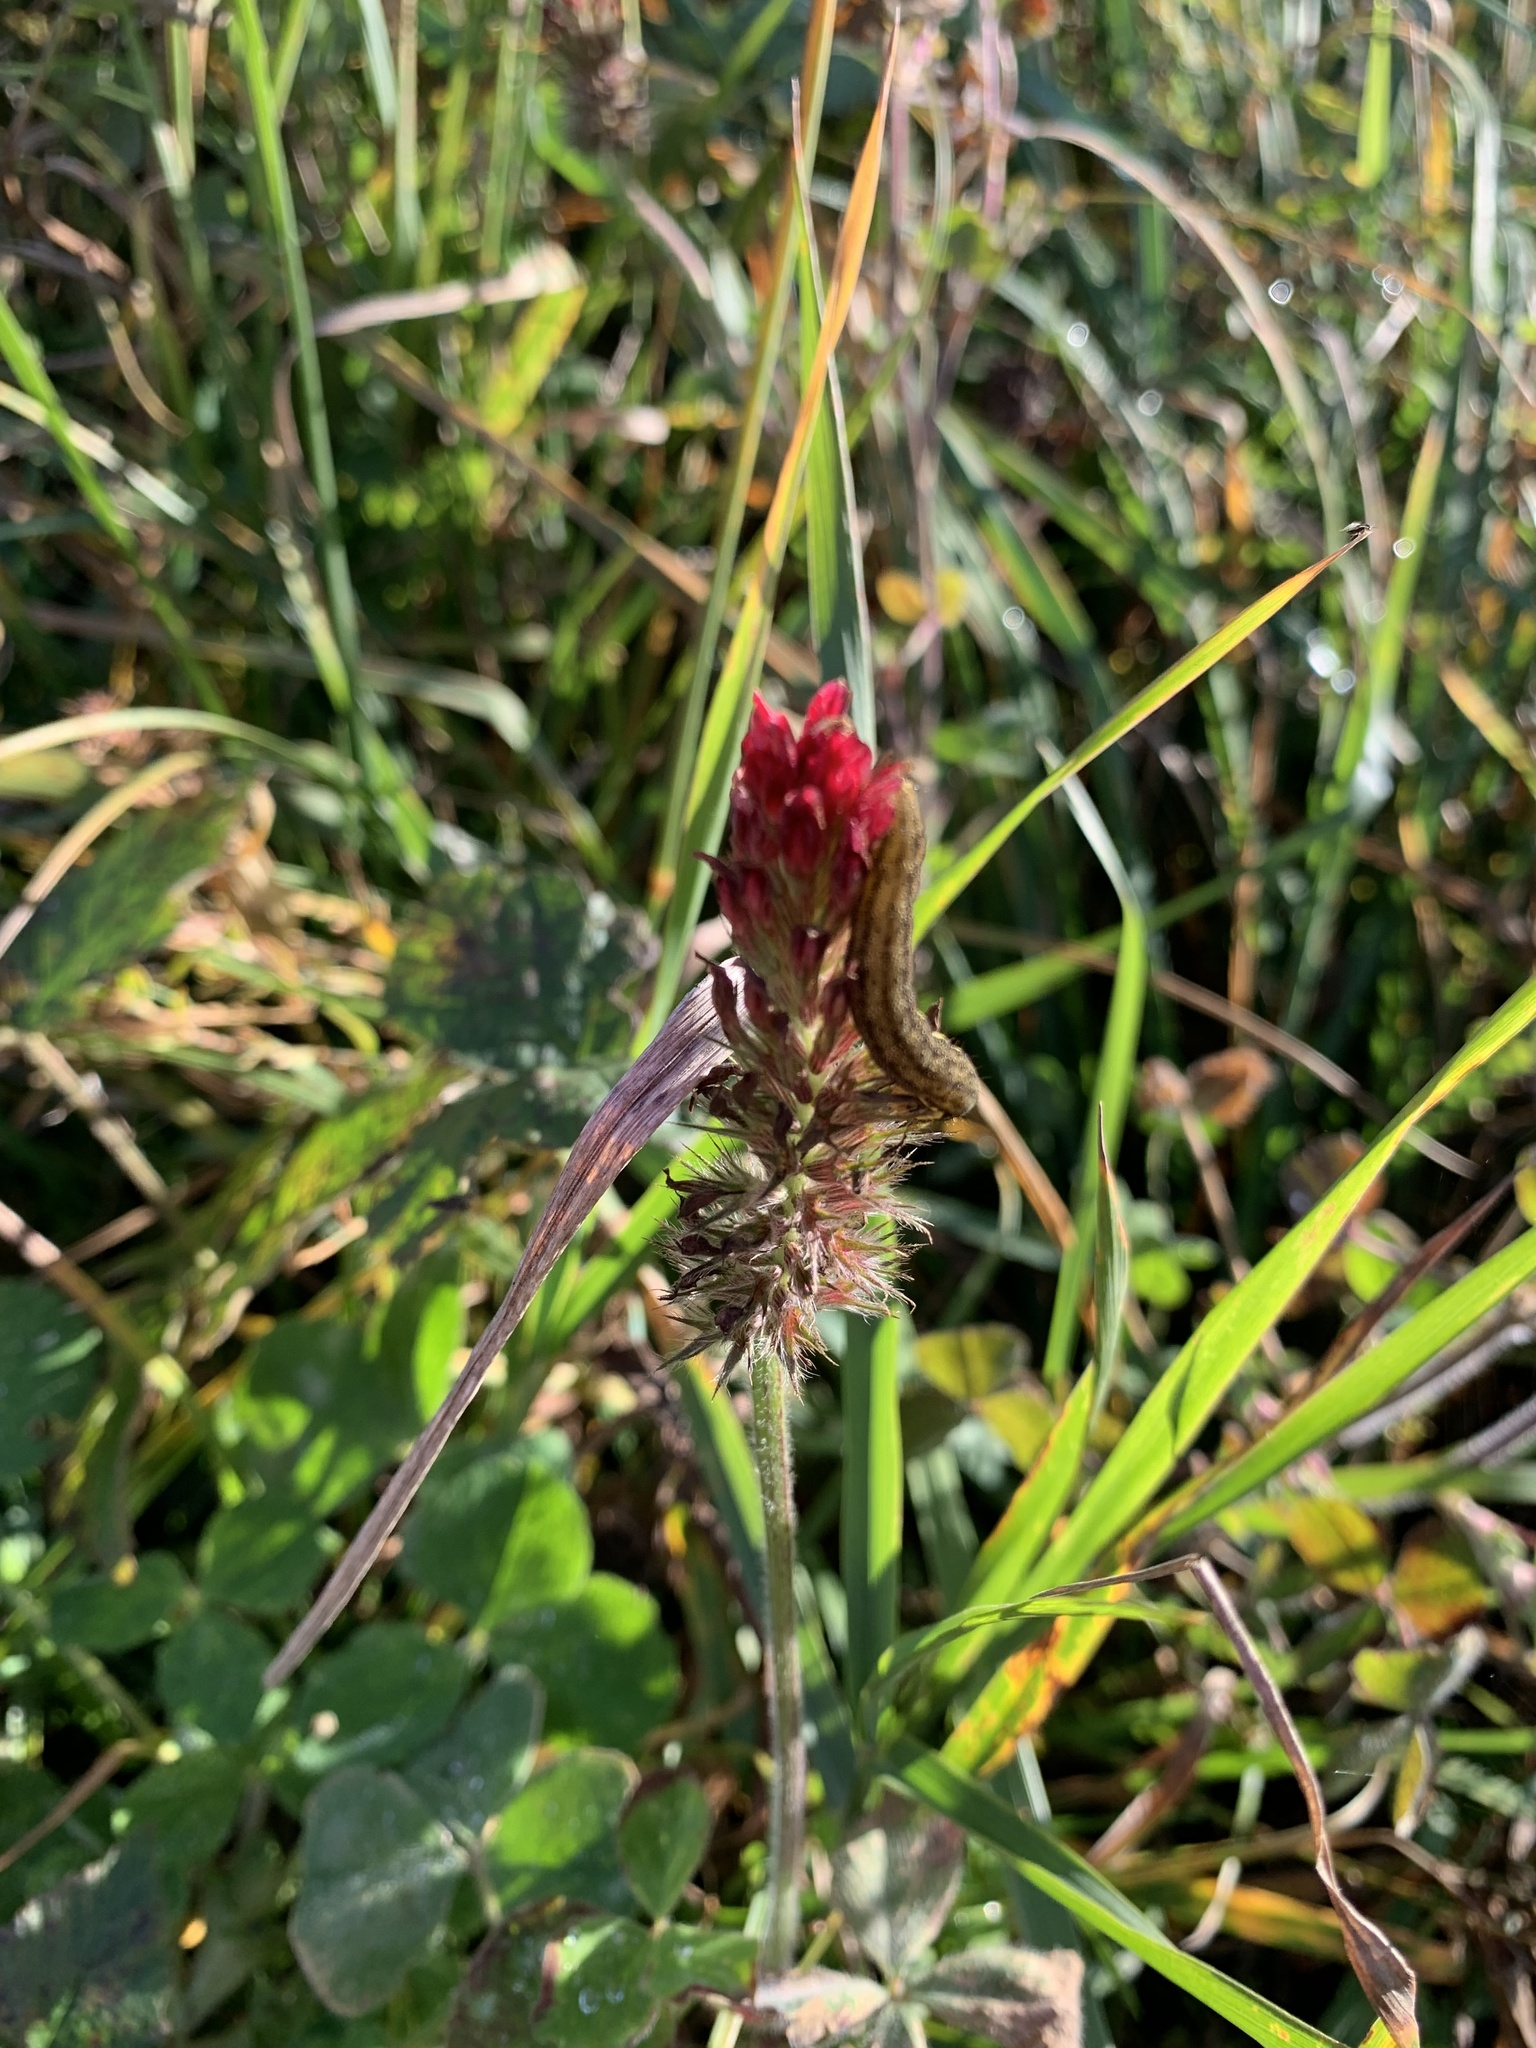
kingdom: Plantae
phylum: Tracheophyta
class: Magnoliopsida
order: Fabales
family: Fabaceae
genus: Trifolium
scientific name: Trifolium incarnatum
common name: Crimson clover
